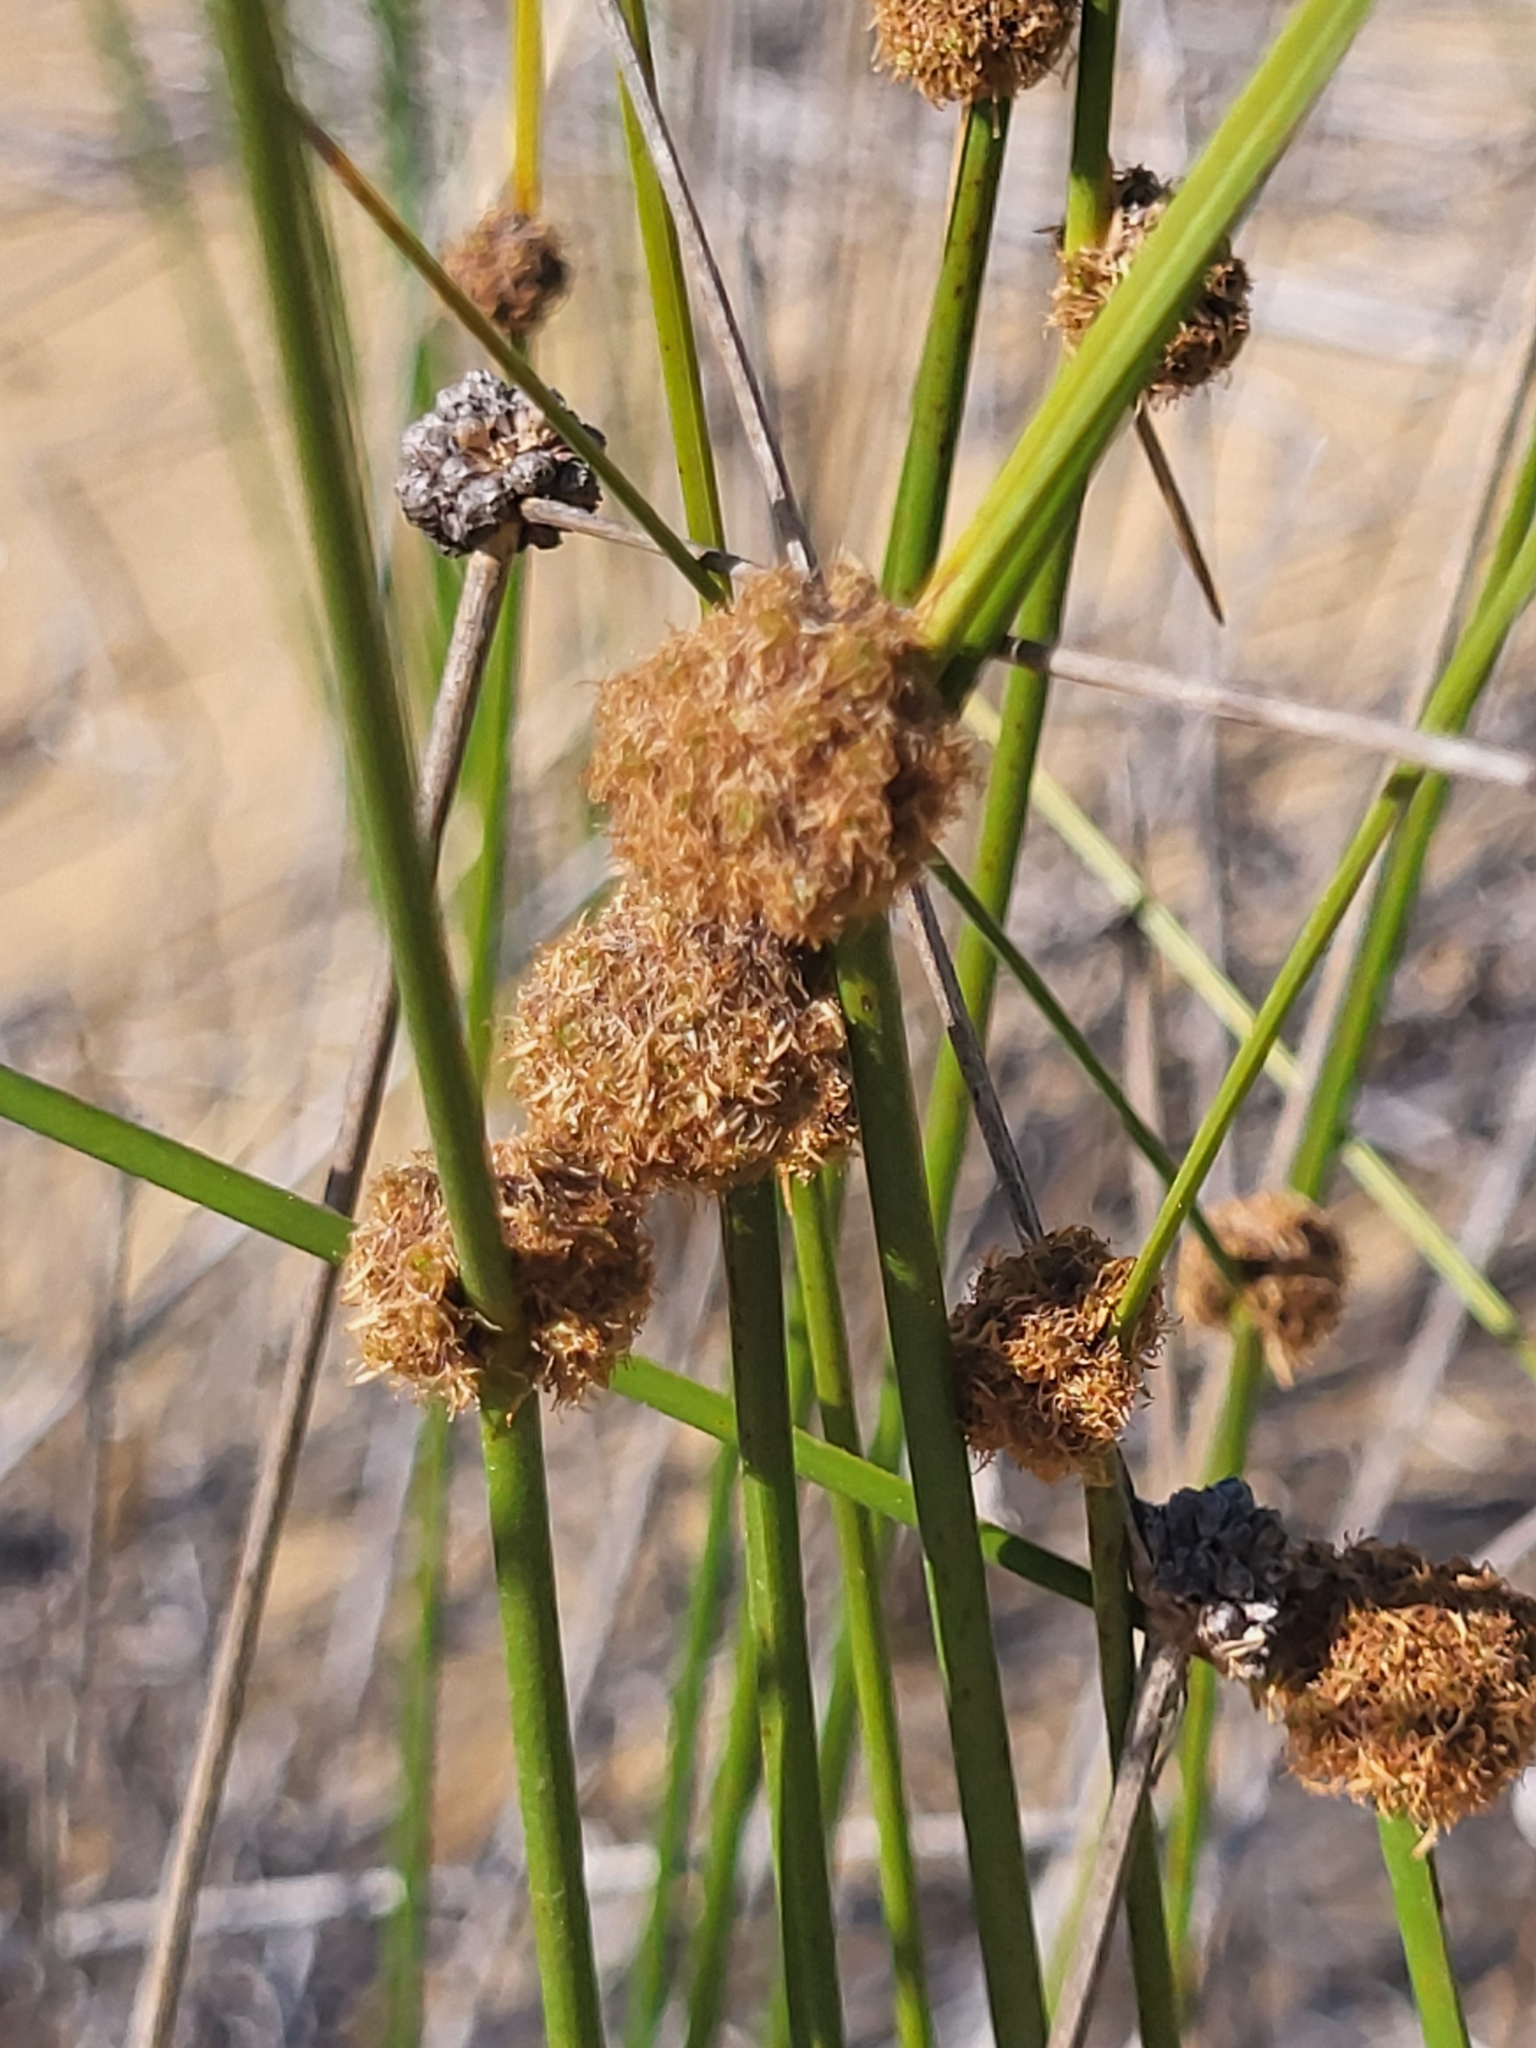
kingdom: Plantae
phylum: Tracheophyta
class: Liliopsida
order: Poales
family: Cyperaceae
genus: Scirpoides
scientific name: Scirpoides holoschoenus
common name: Round-headed club-rush
